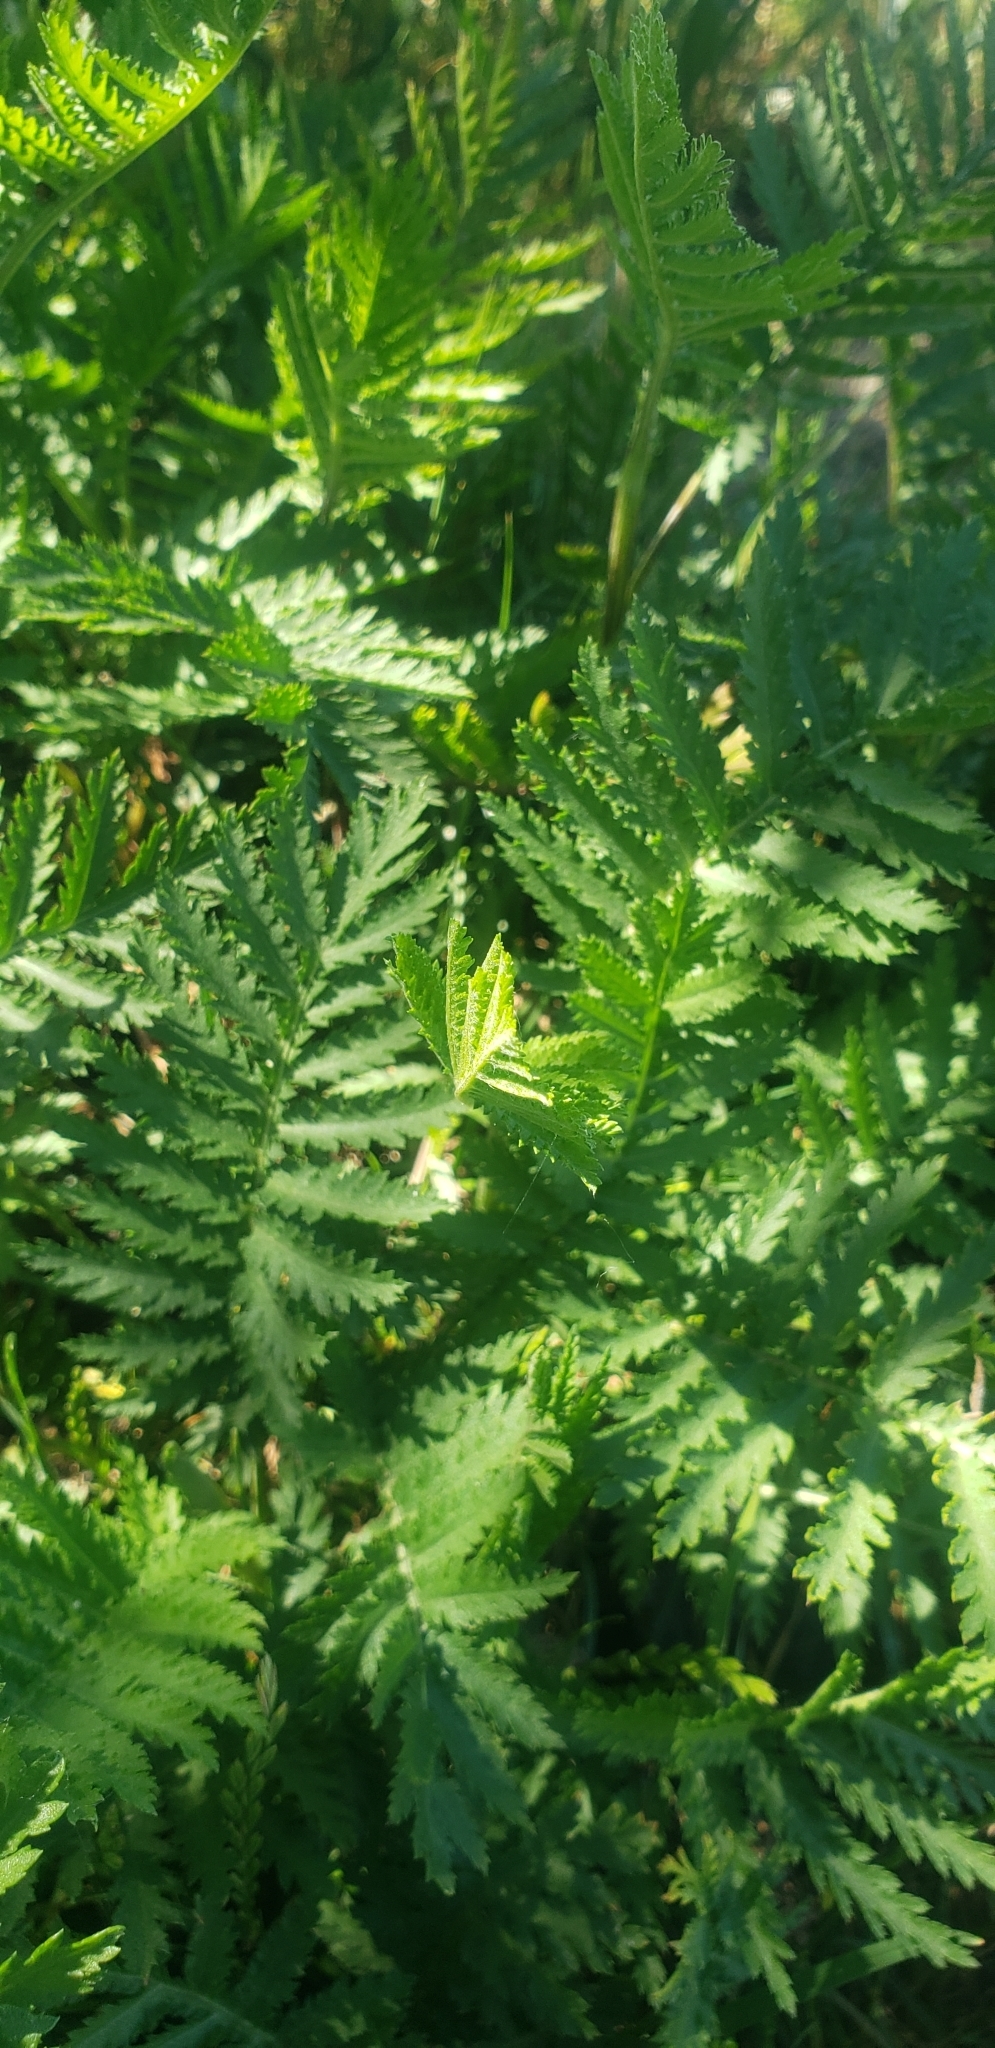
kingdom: Plantae
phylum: Tracheophyta
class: Magnoliopsida
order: Asterales
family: Asteraceae
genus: Tanacetum
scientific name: Tanacetum vulgare
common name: Common tansy
